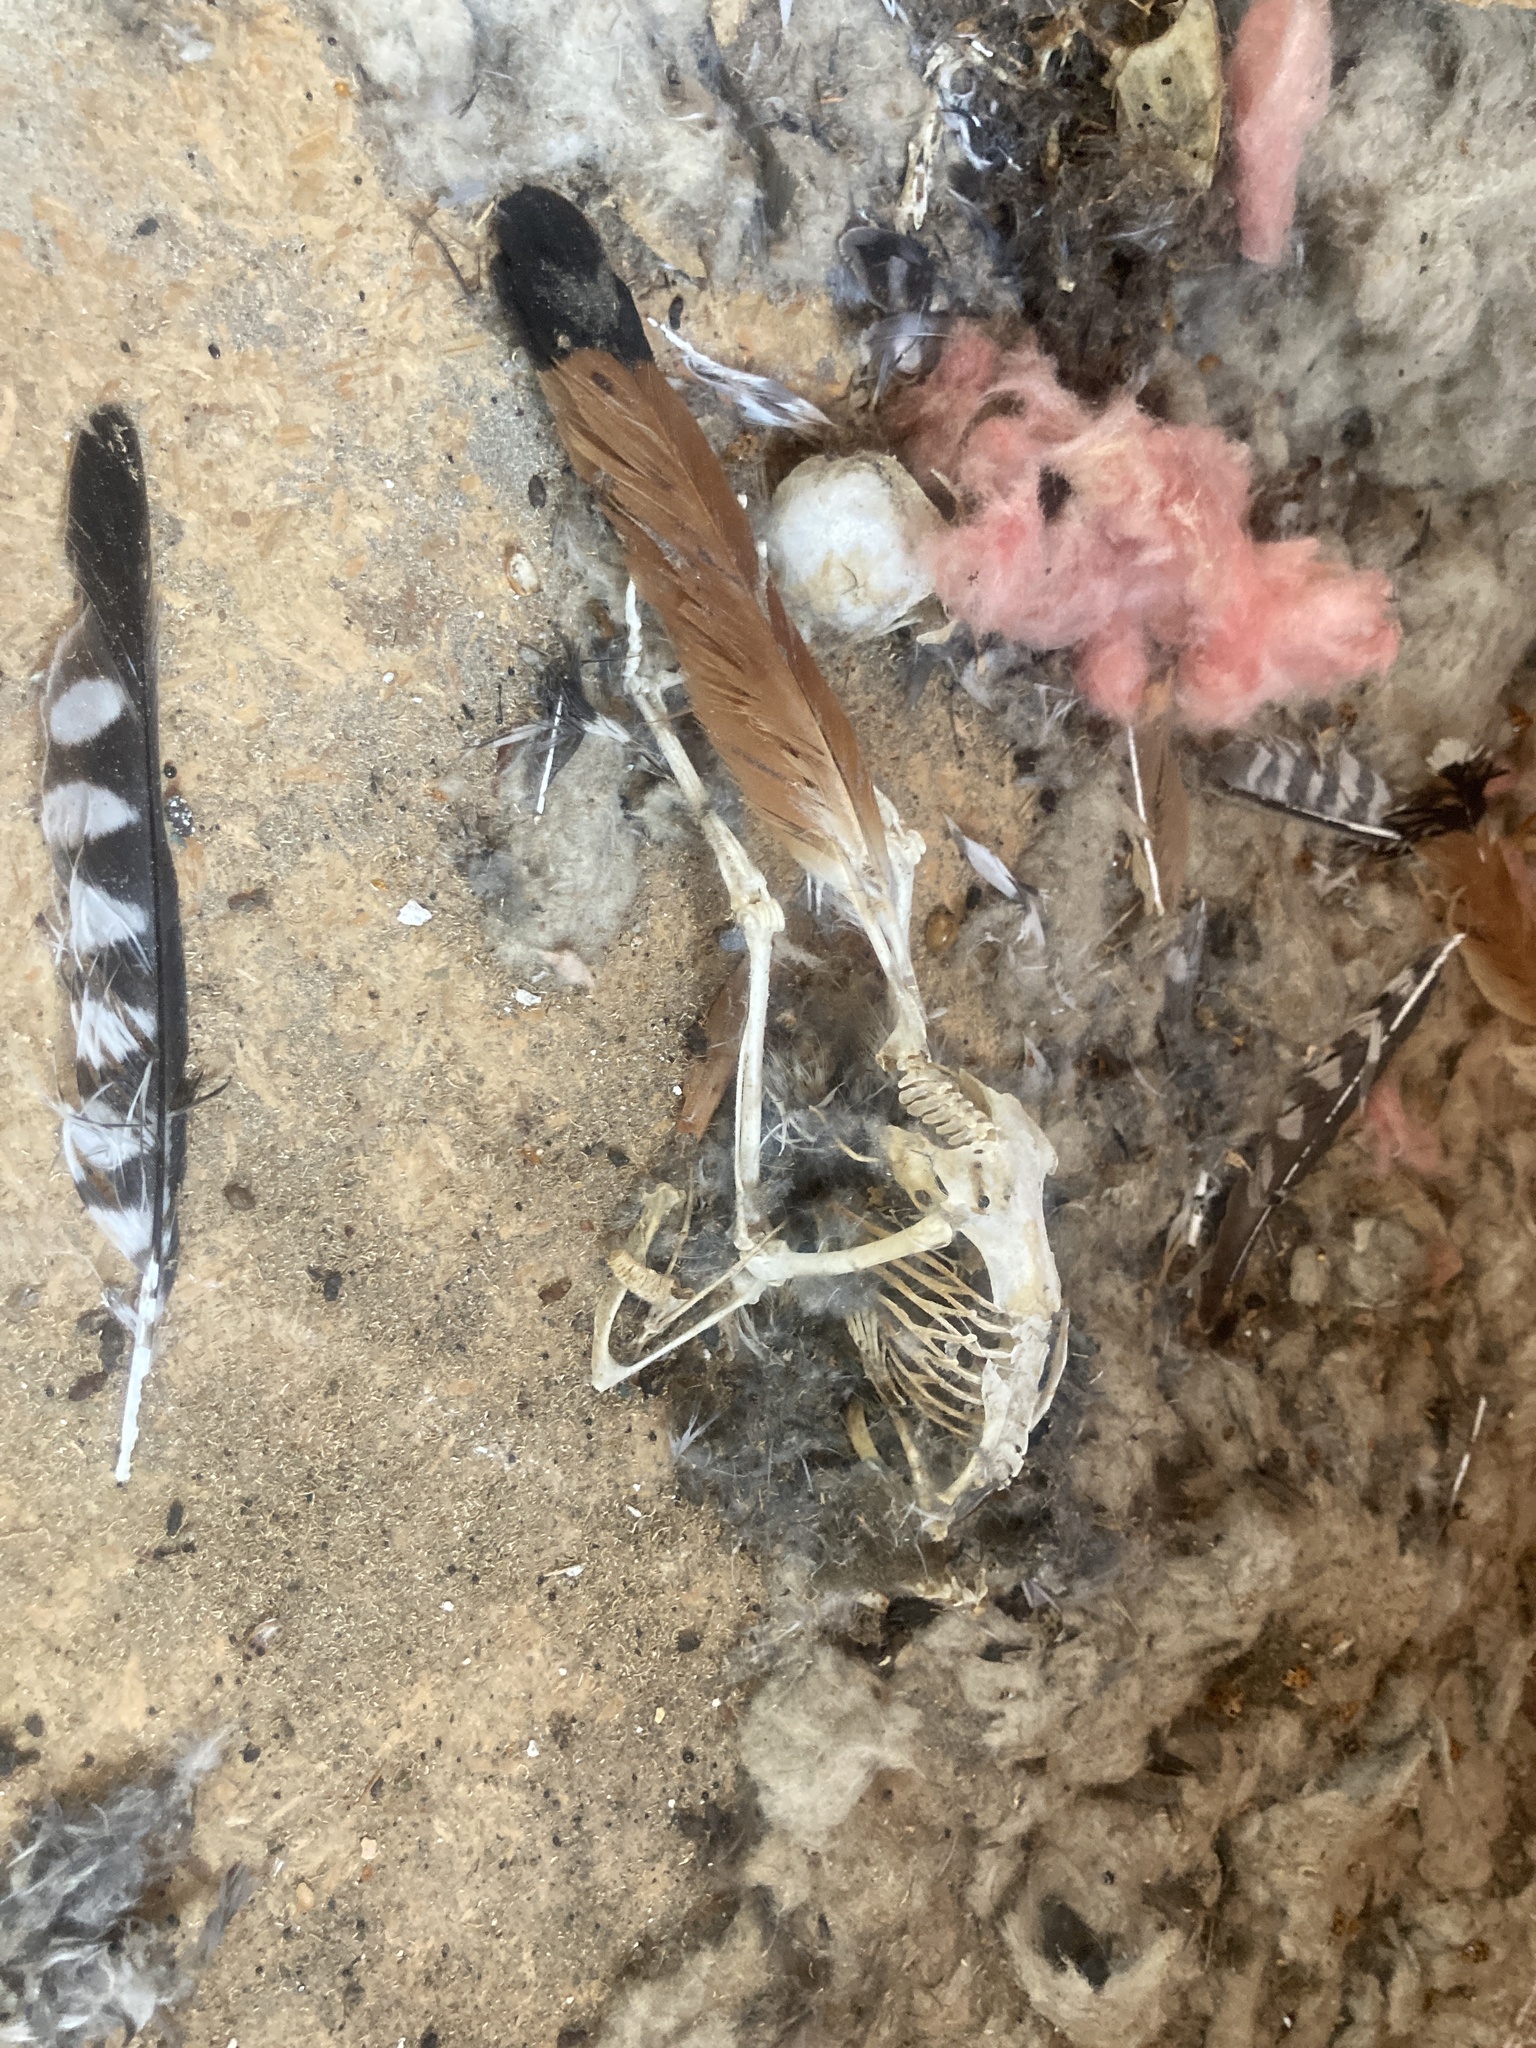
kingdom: Animalia
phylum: Chordata
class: Aves
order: Falconiformes
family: Falconidae
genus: Falco
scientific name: Falco sparverius
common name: American kestrel
